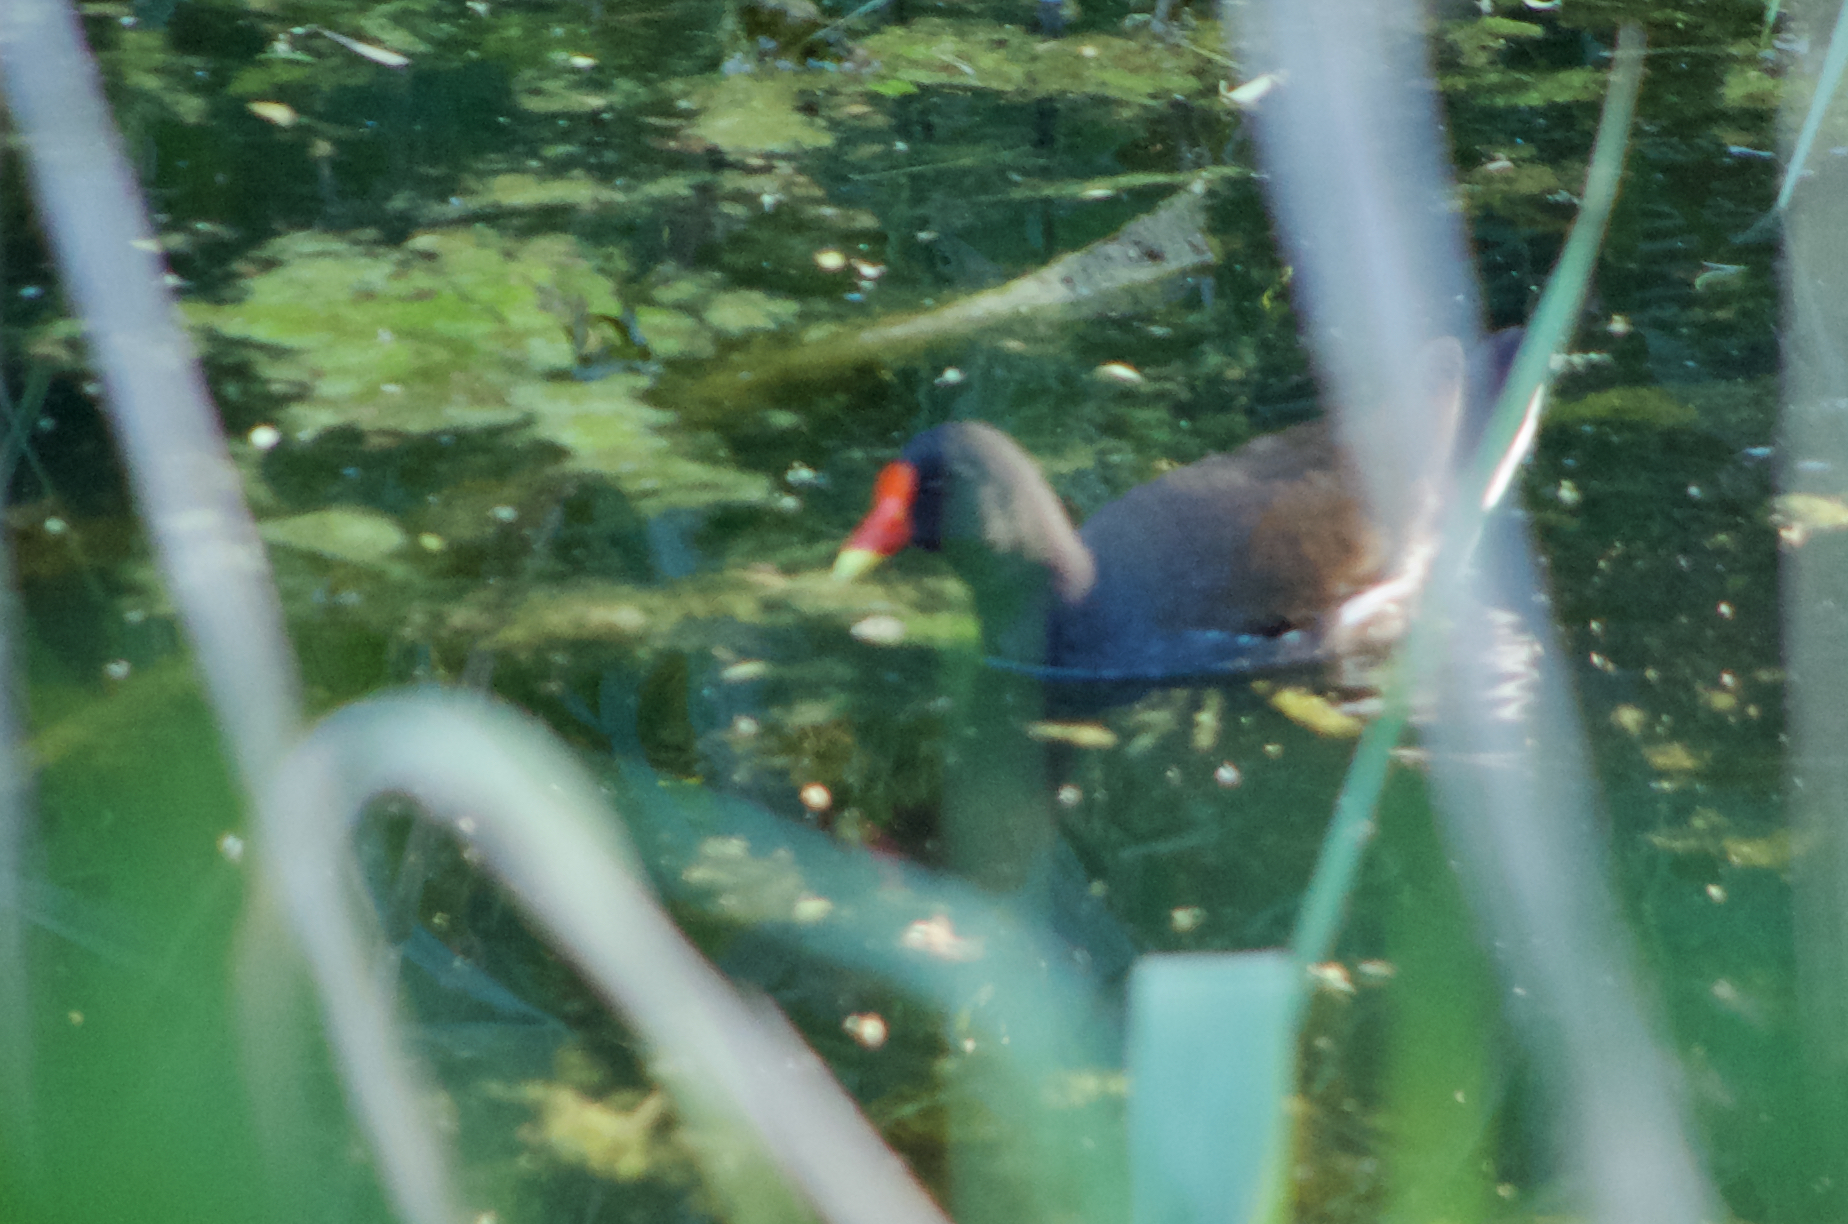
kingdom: Animalia
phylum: Chordata
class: Aves
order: Gruiformes
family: Rallidae
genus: Gallinula
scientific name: Gallinula chloropus
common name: Common moorhen
